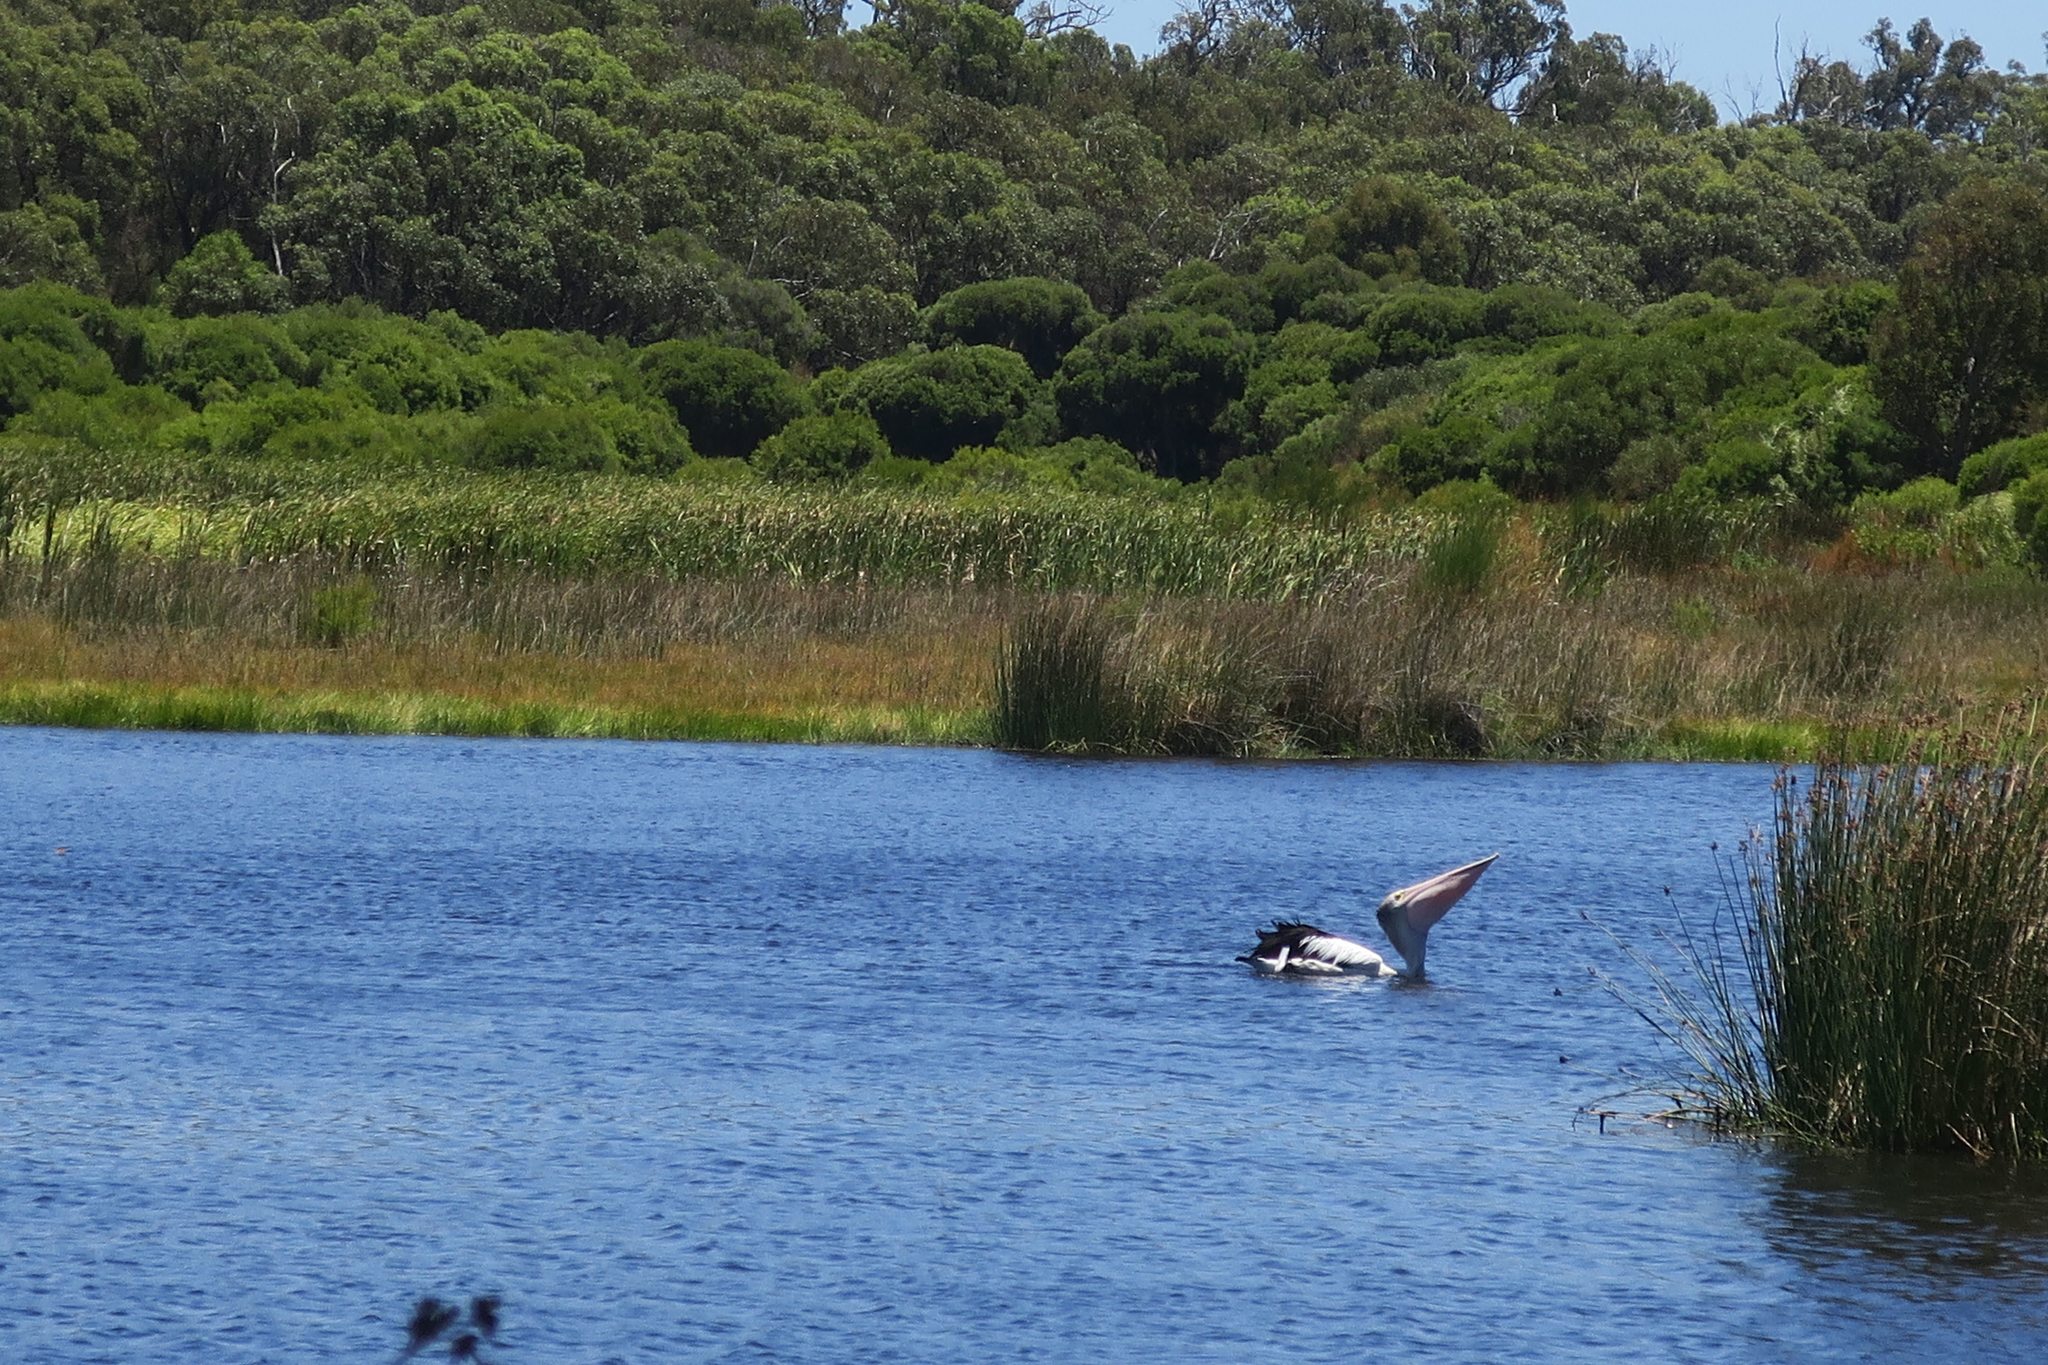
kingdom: Animalia
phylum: Chordata
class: Aves
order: Pelecaniformes
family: Pelecanidae
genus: Pelecanus
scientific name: Pelecanus conspicillatus
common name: Australian pelican
